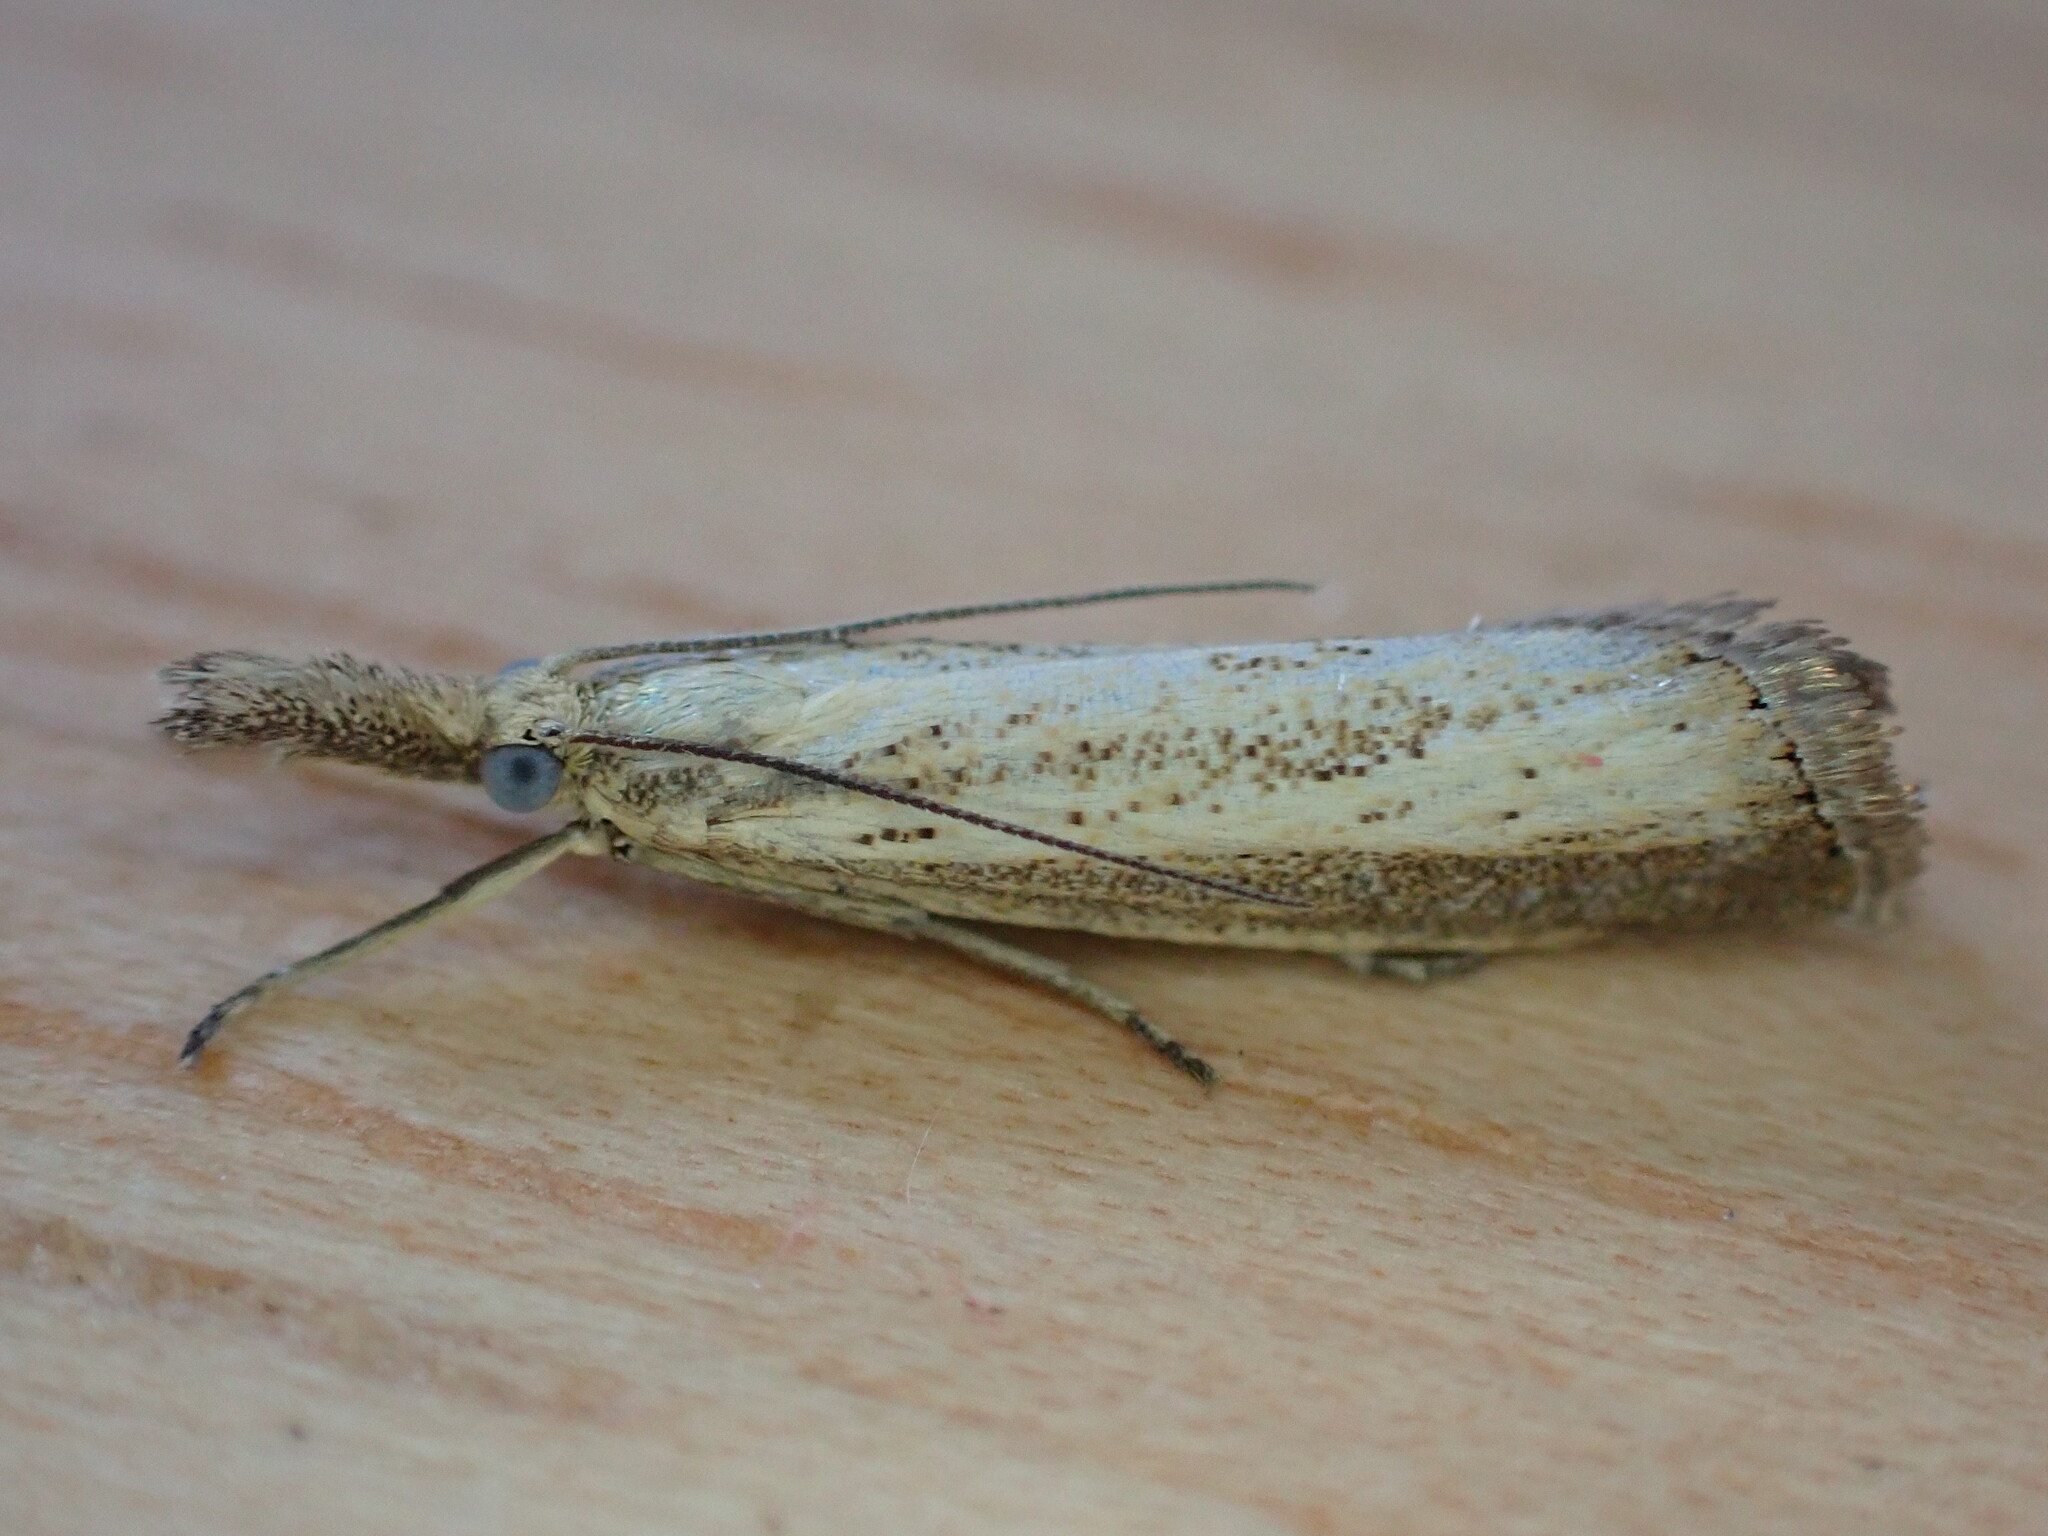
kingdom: Animalia
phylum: Arthropoda
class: Insecta
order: Lepidoptera
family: Crambidae
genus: Agriphila
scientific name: Agriphila straminella
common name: Straw grass-veneer
